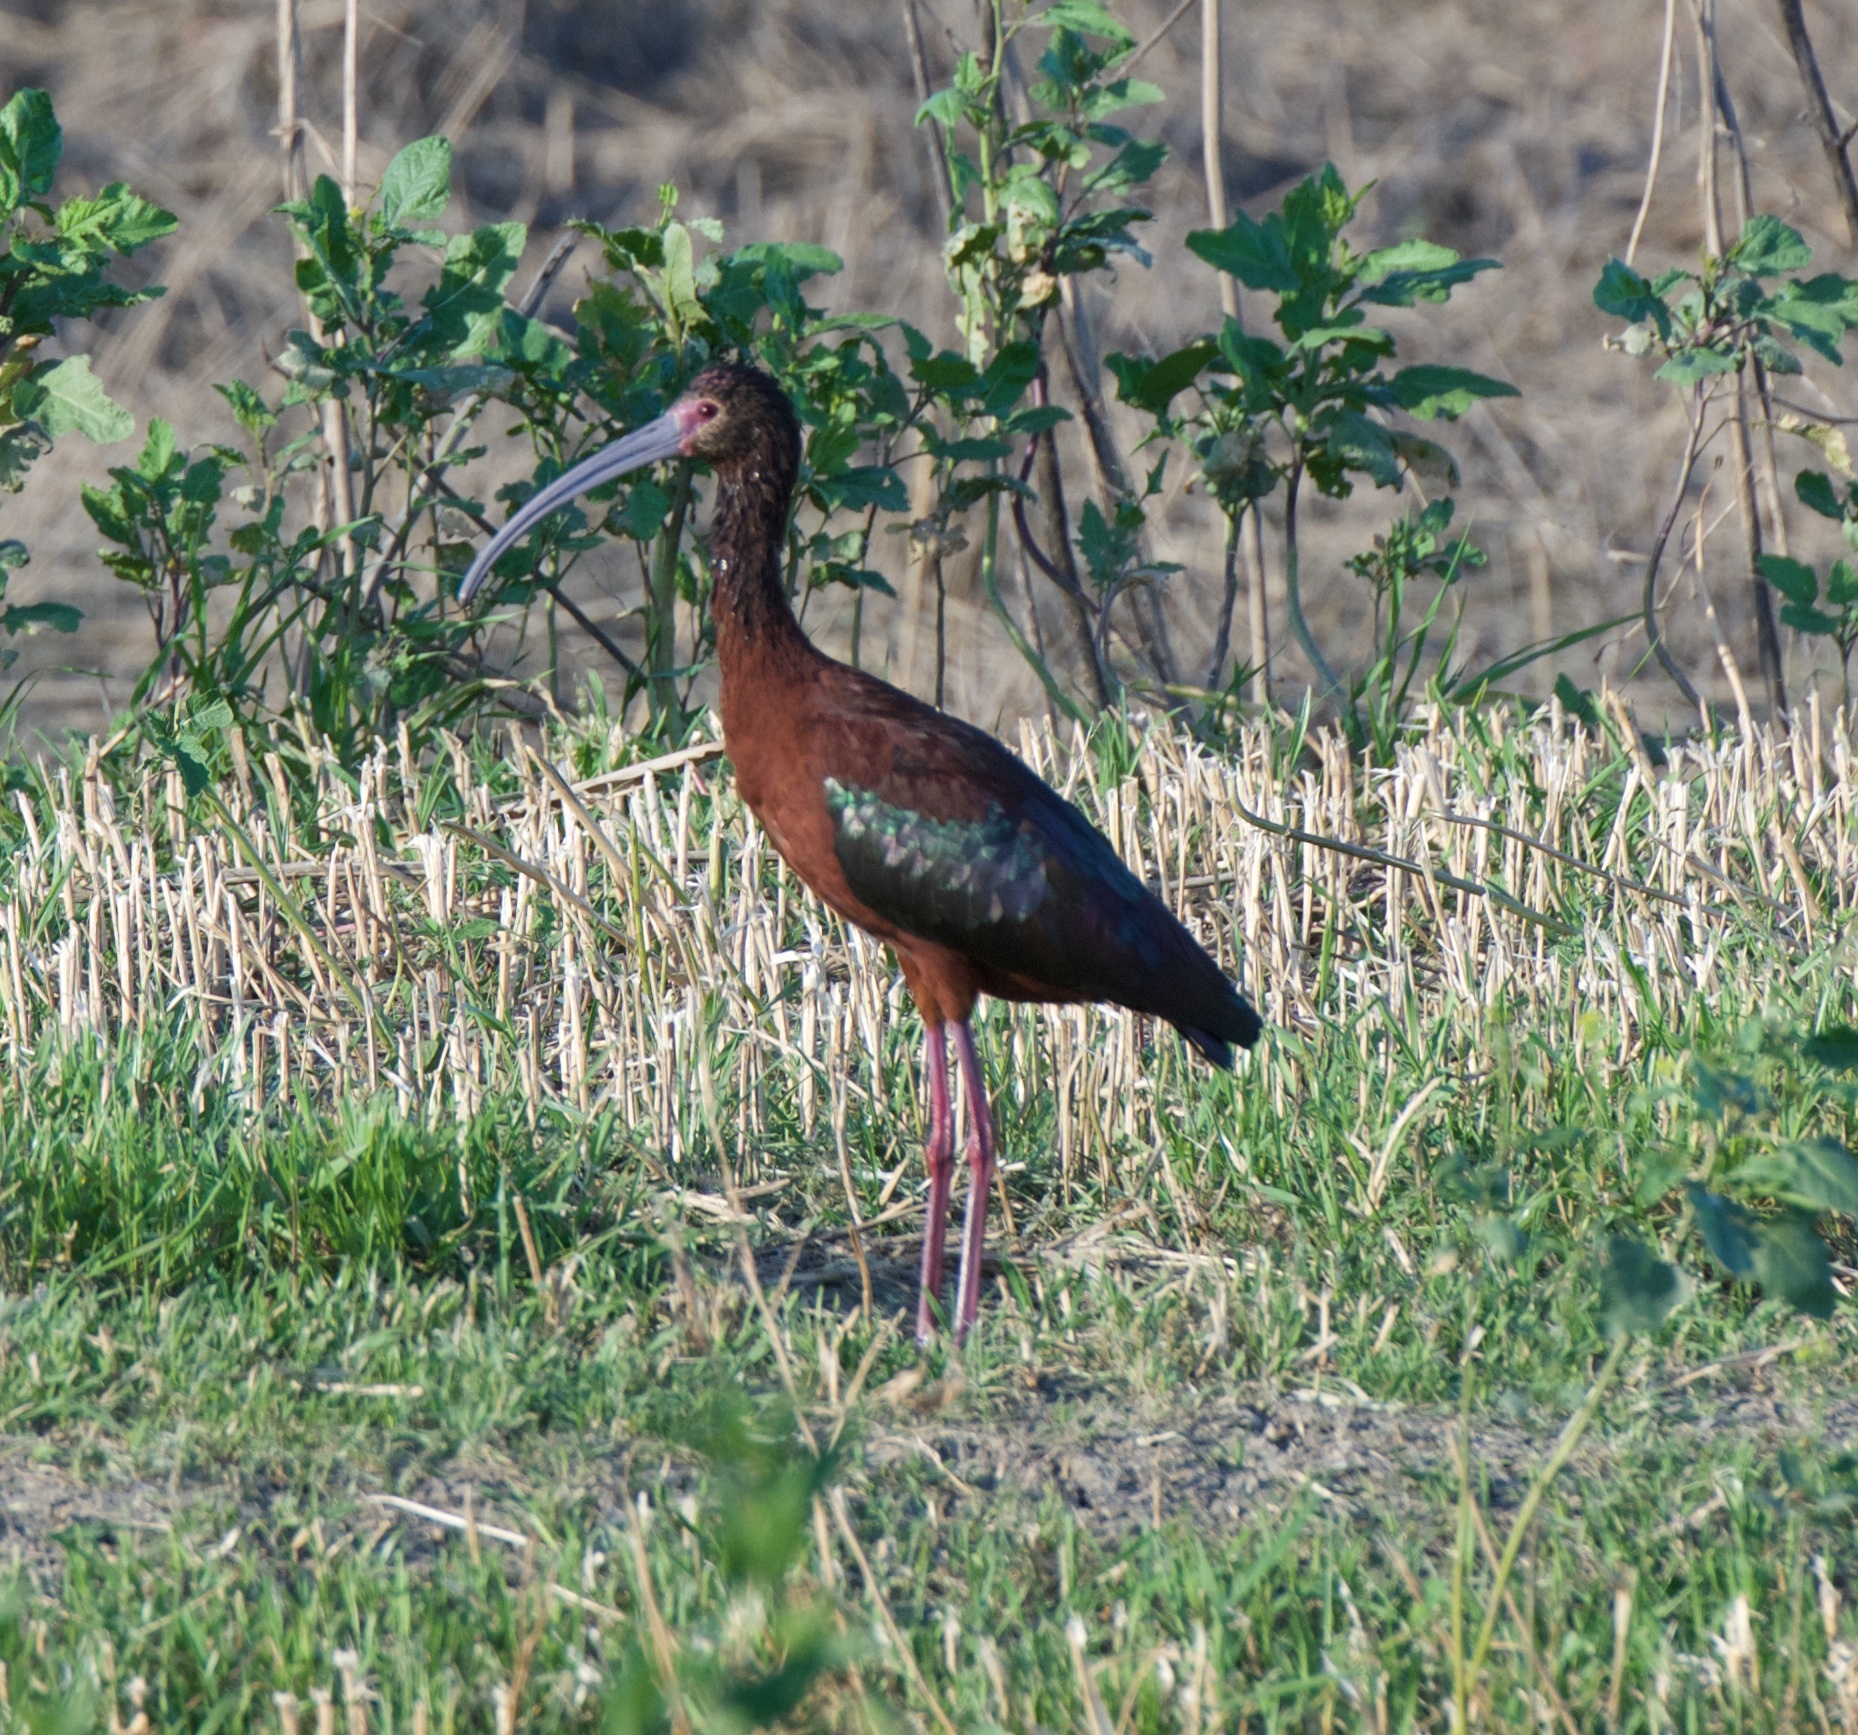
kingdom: Animalia
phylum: Chordata
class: Aves
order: Pelecaniformes
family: Threskiornithidae
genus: Plegadis
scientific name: Plegadis chihi
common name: White-faced ibis
